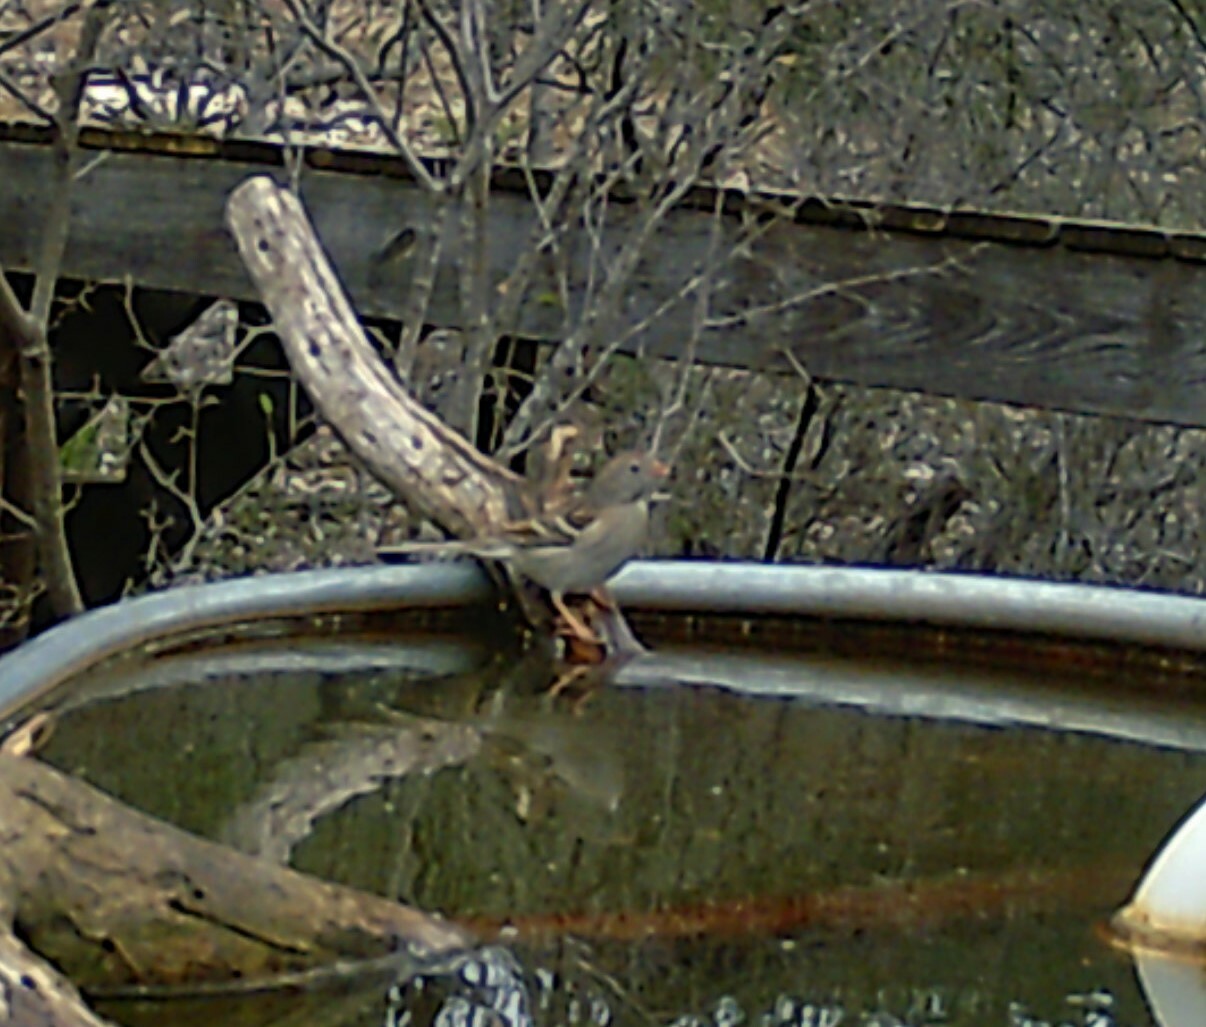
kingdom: Animalia
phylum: Chordata
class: Aves
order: Passeriformes
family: Passerellidae
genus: Spizella
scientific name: Spizella pusilla
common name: Field sparrow
